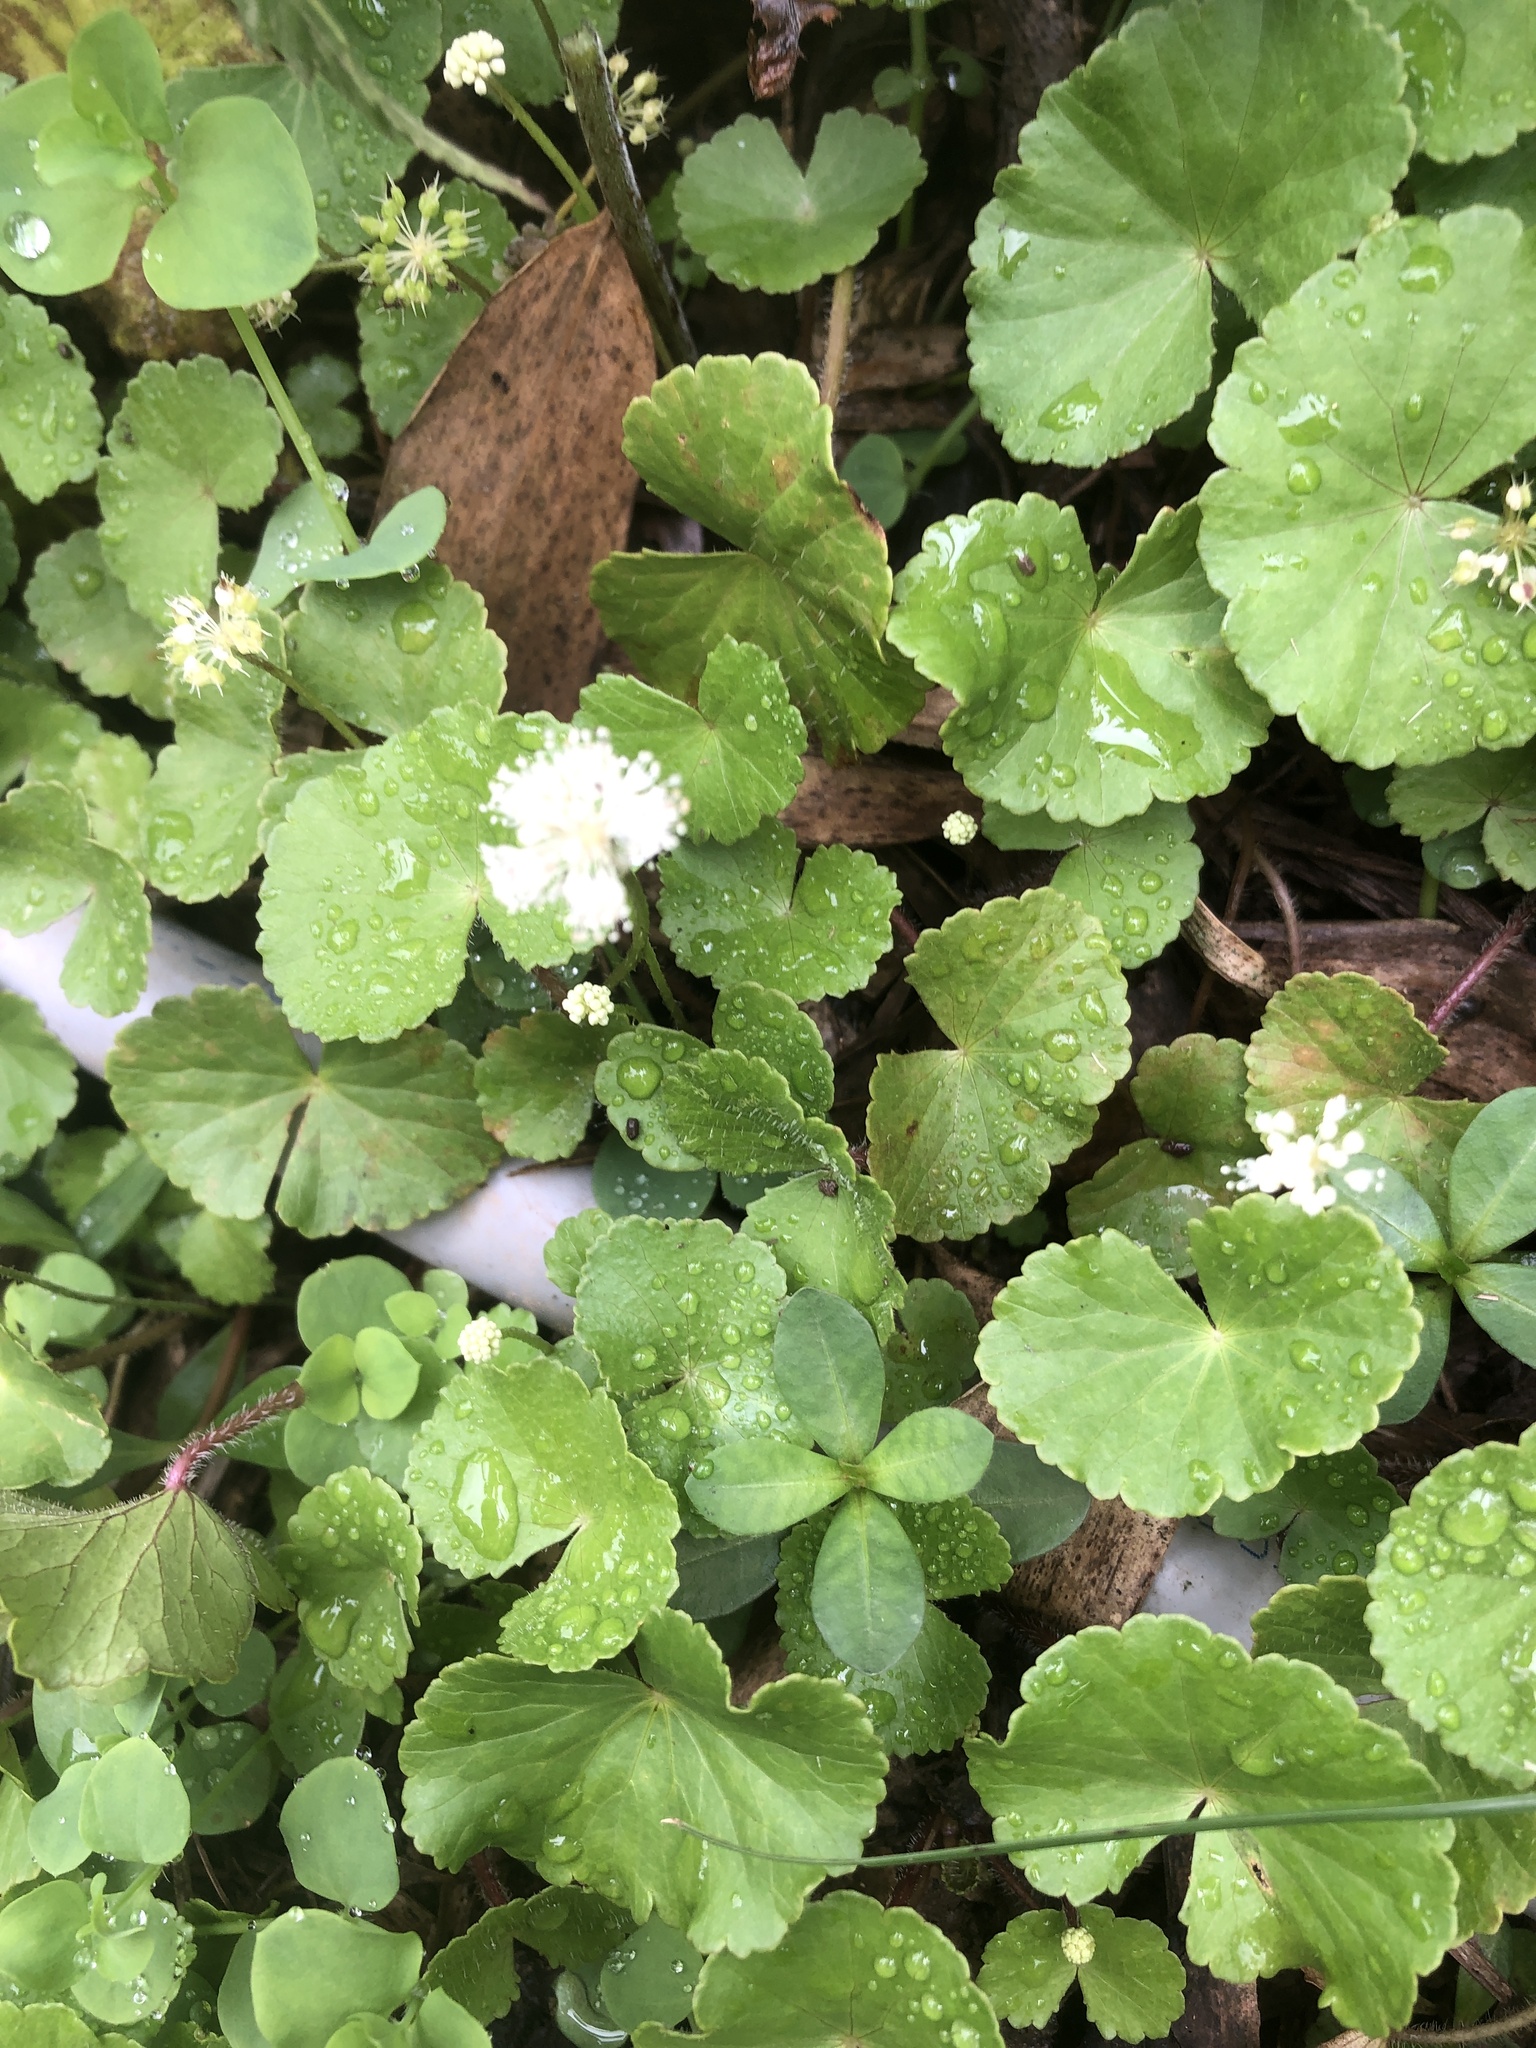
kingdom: Plantae
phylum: Tracheophyta
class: Magnoliopsida
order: Apiales
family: Araliaceae
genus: Hydrocotyle
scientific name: Hydrocotyle leucocephala
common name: Brazilian pennywort
